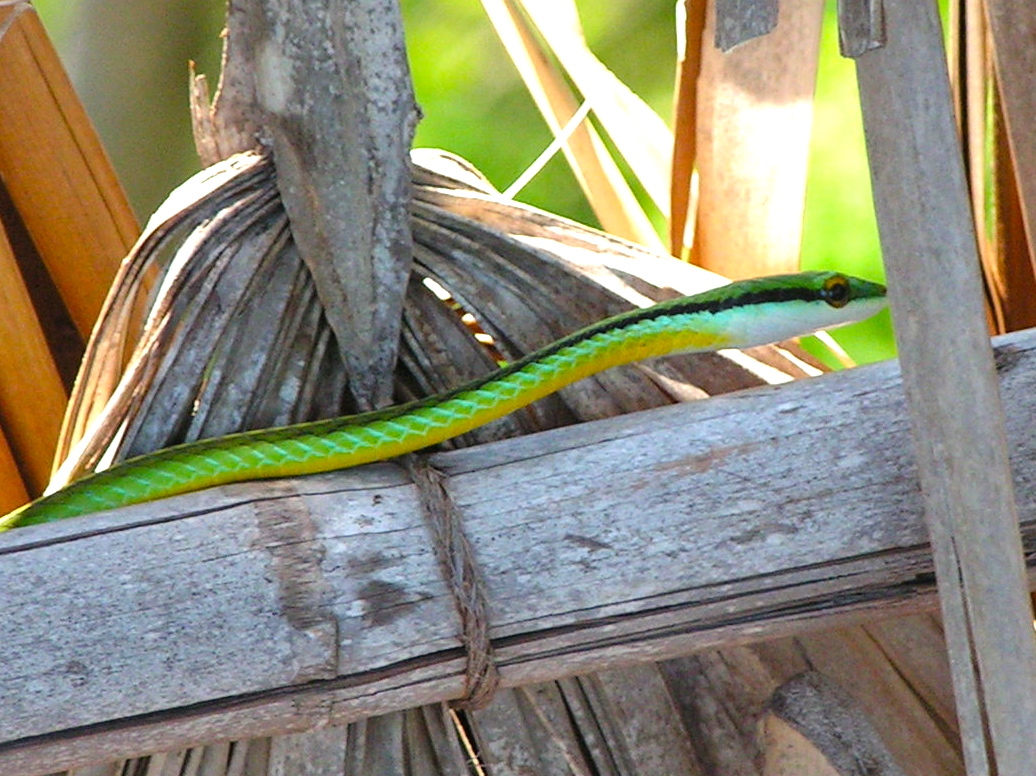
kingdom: Animalia
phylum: Chordata
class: Squamata
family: Colubridae
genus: Leptophis
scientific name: Leptophis diplotropis
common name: Pacific coast parrot snake
